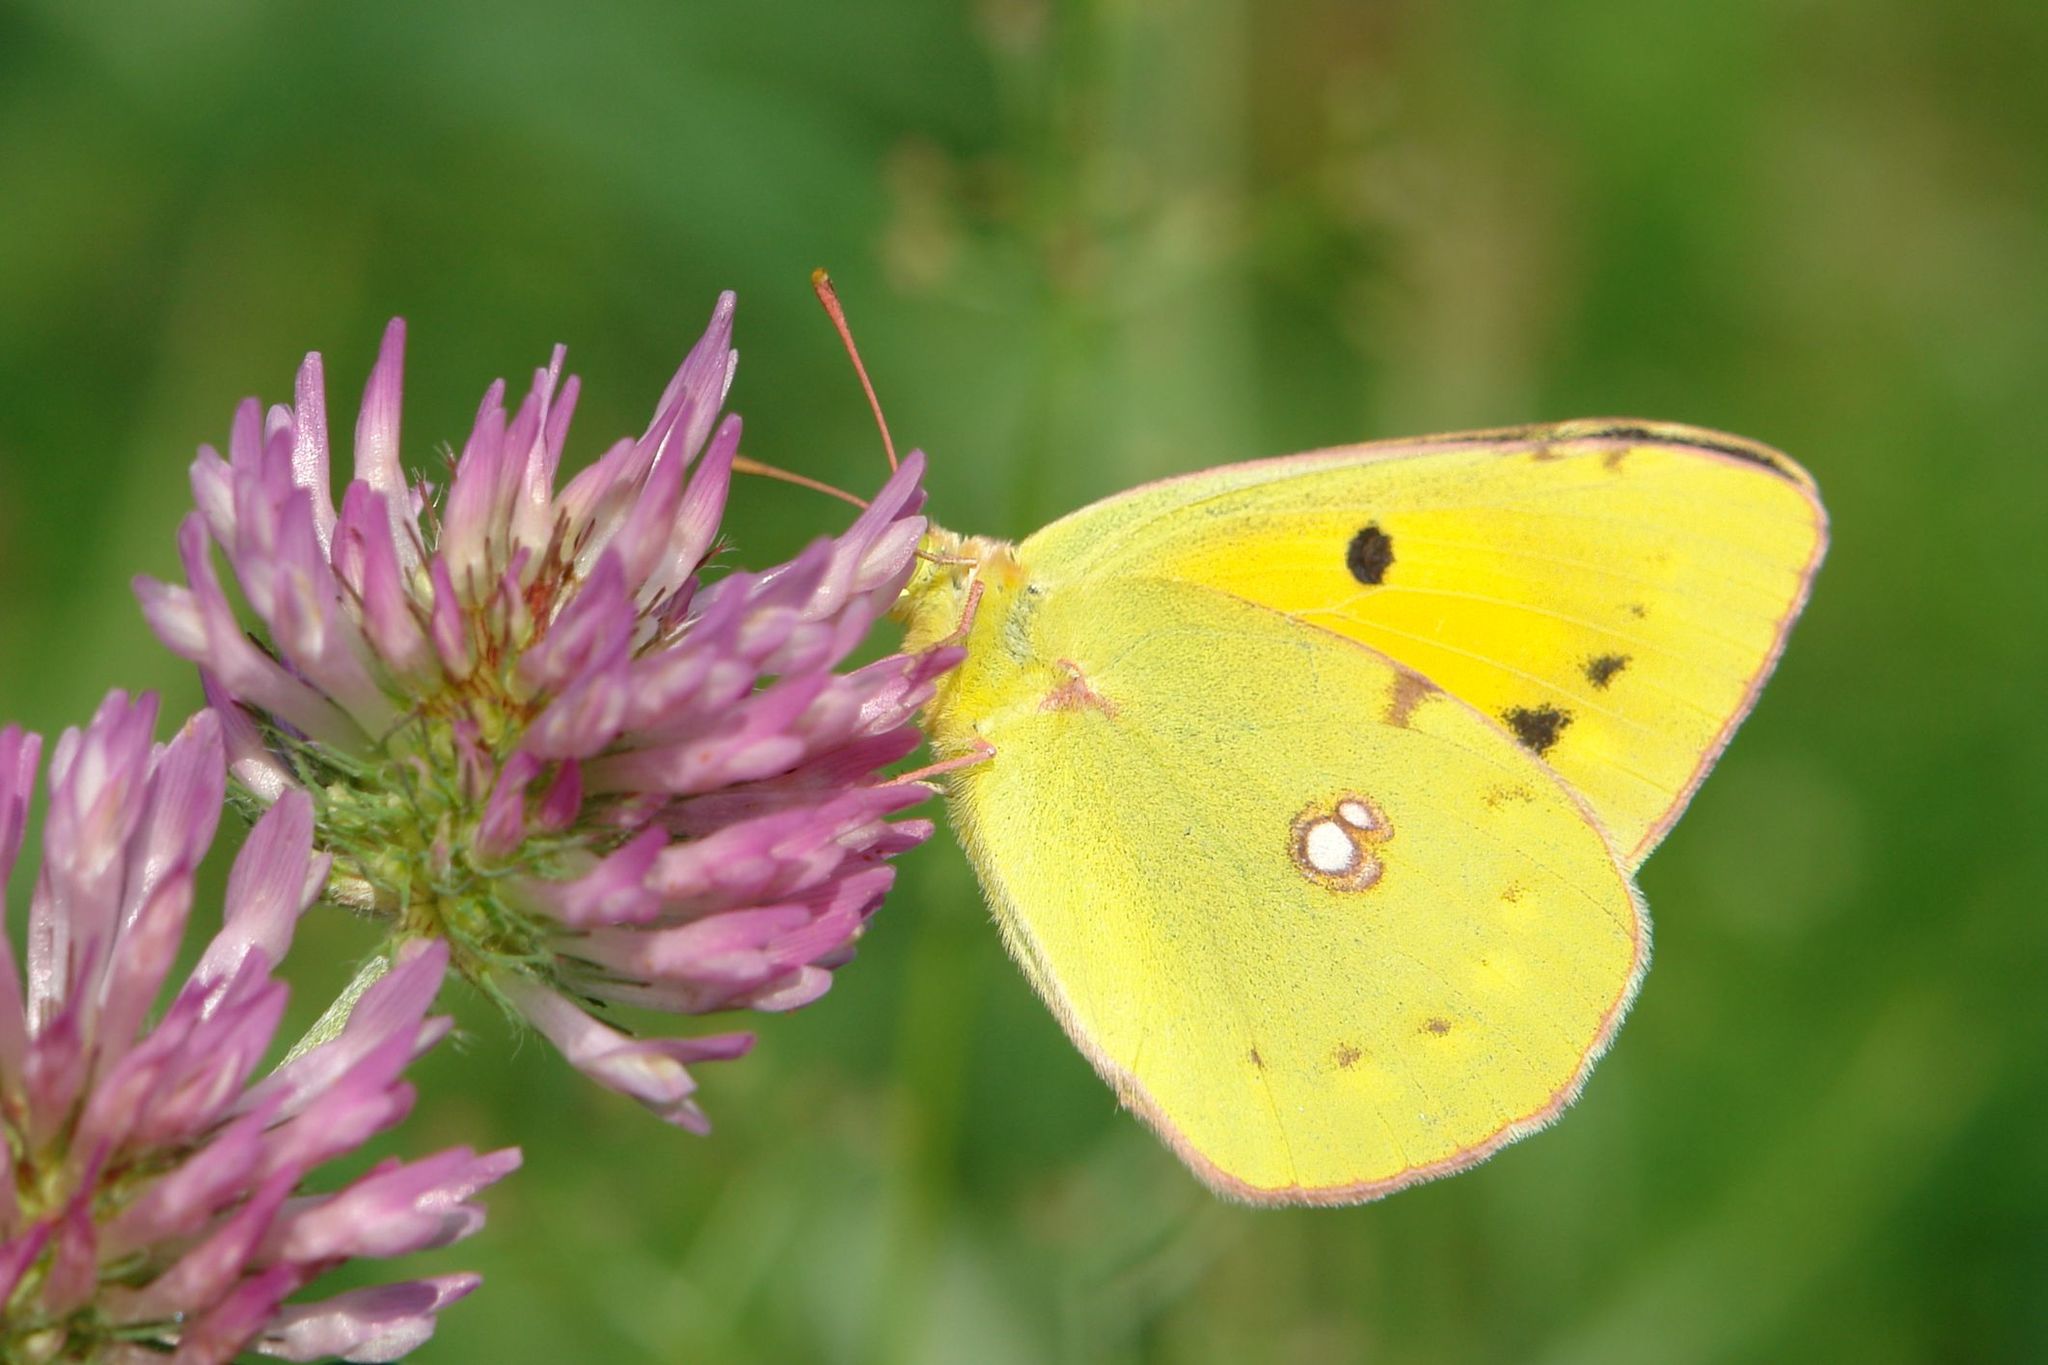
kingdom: Animalia
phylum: Arthropoda
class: Insecta
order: Lepidoptera
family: Pieridae
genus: Colias
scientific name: Colias croceus
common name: Clouded yellow
